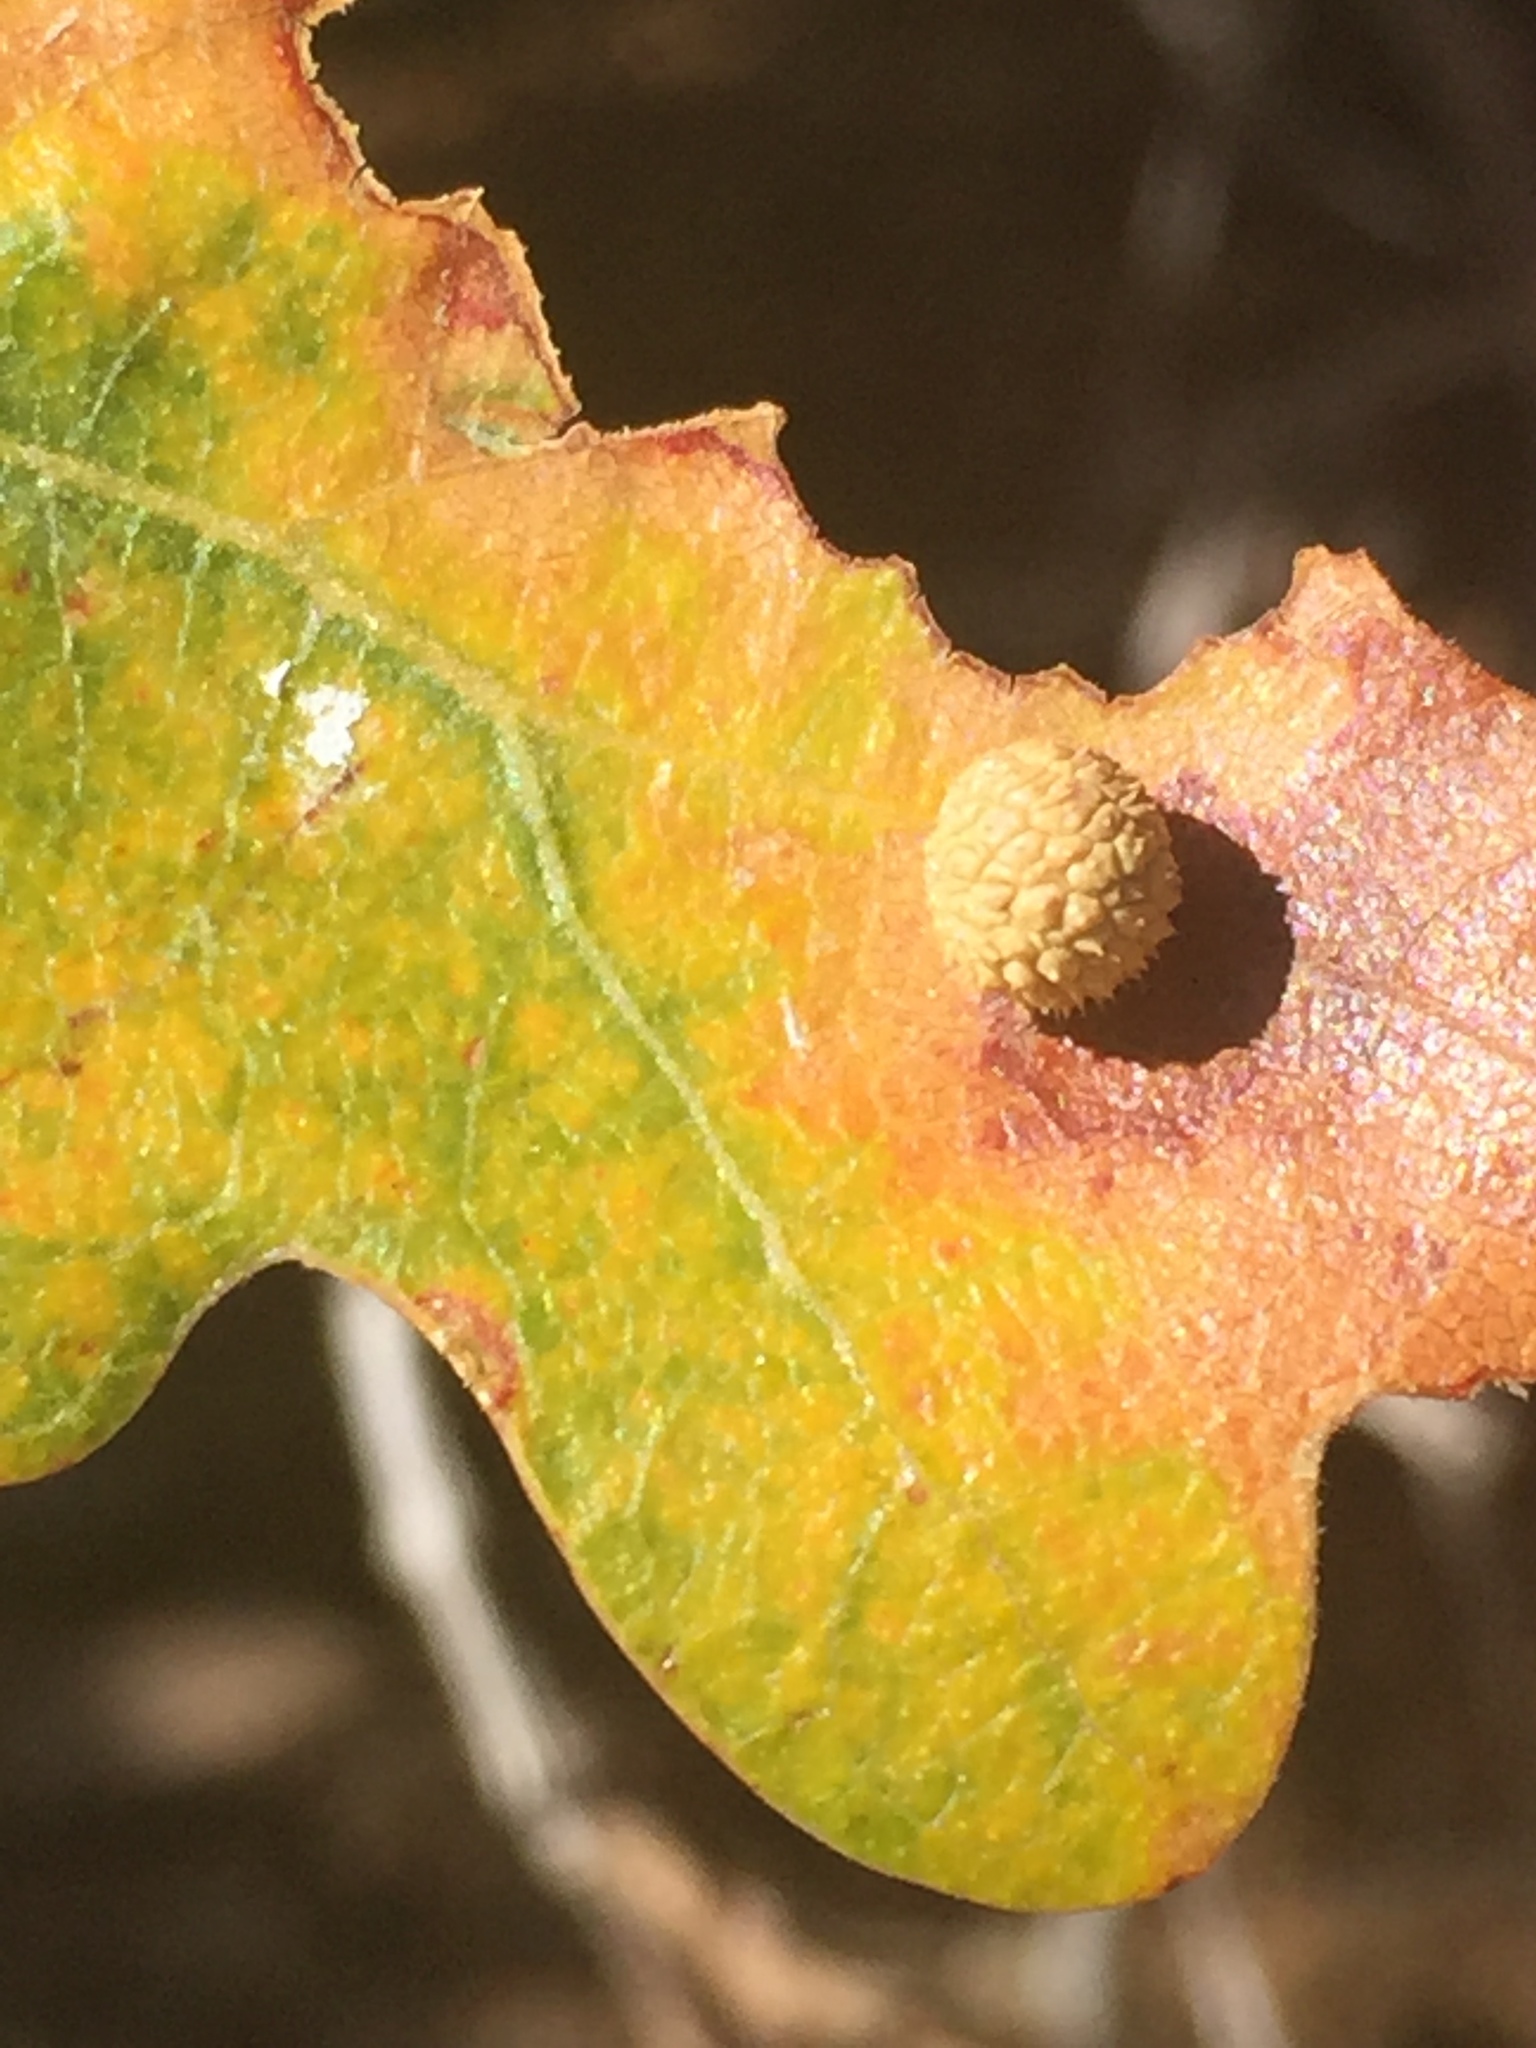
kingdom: Animalia
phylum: Arthropoda
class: Insecta
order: Hymenoptera
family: Cynipidae
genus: Acraspis
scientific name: Acraspis quercushirta
